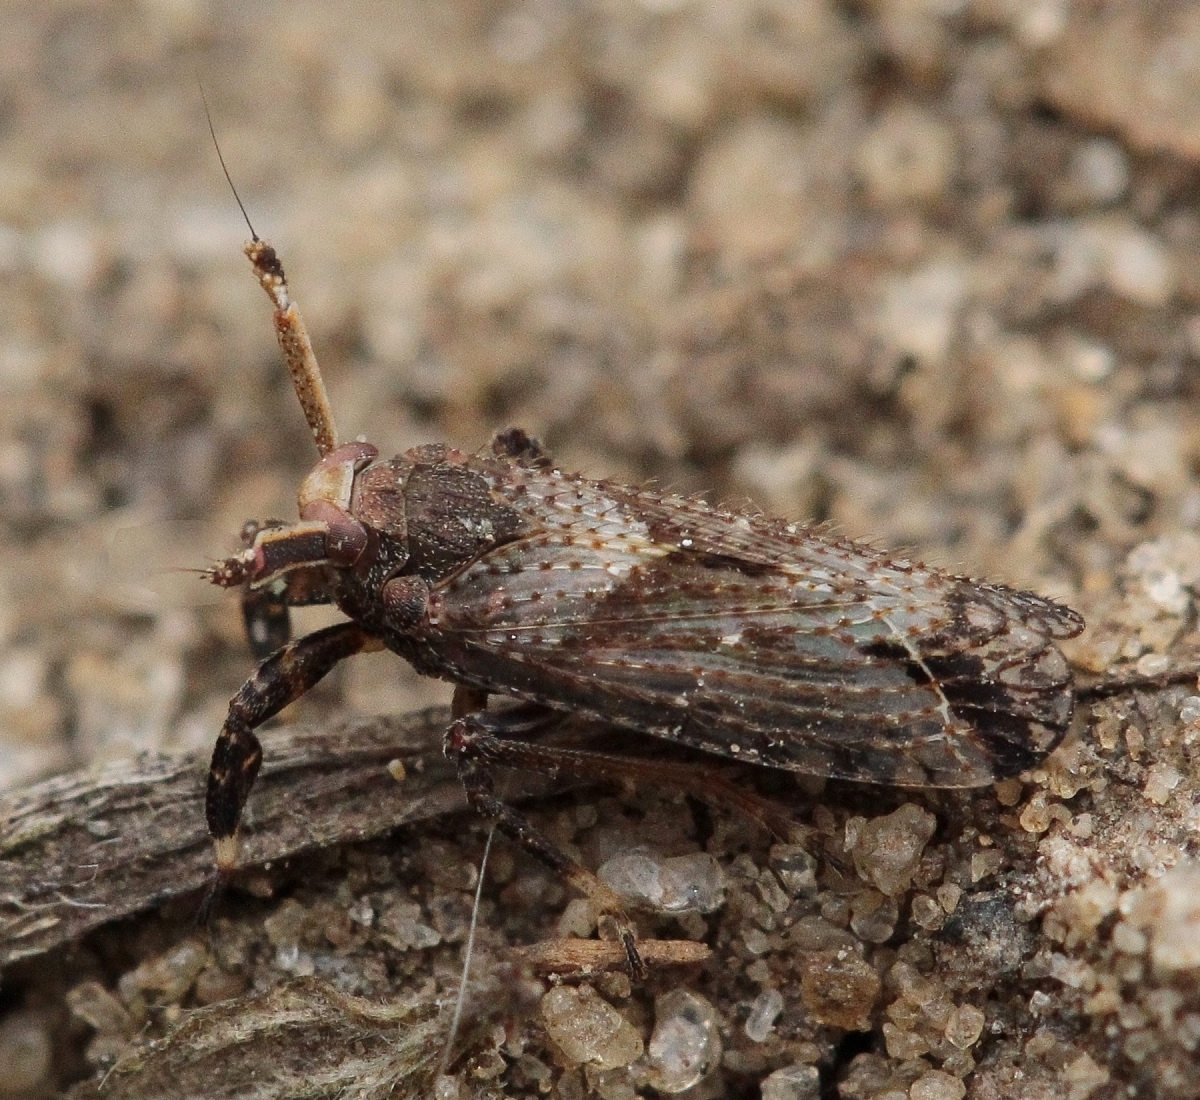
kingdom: Animalia
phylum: Arthropoda
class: Insecta
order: Hemiptera
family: Delphacidae
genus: Asiraca
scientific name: Asiraca clavicornis
